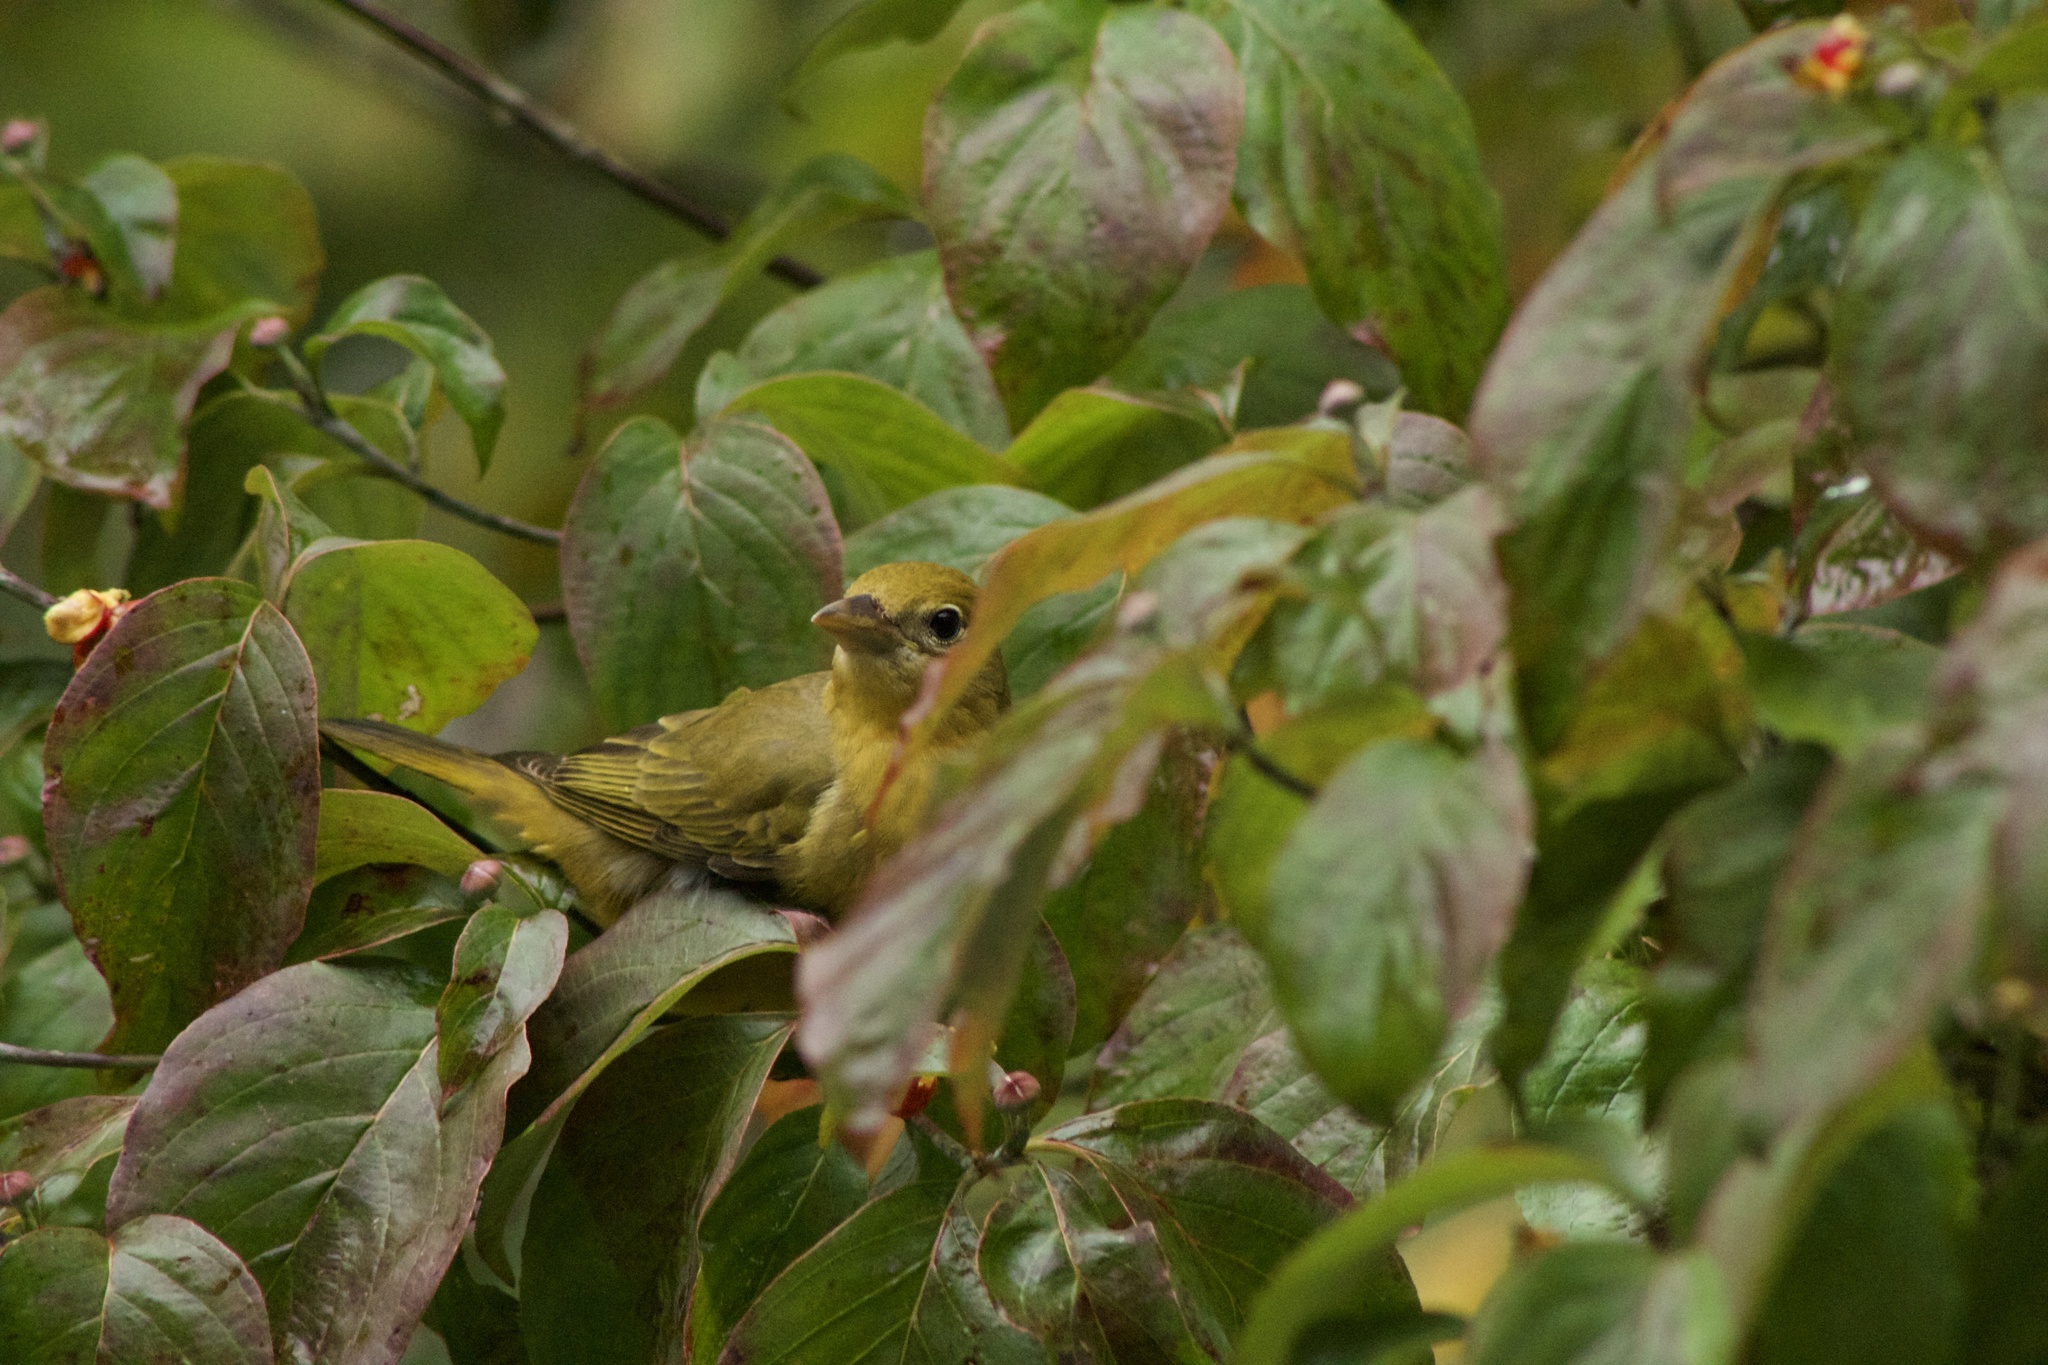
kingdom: Animalia
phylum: Chordata
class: Aves
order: Passeriformes
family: Cardinalidae
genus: Piranga
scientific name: Piranga olivacea
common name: Scarlet tanager
